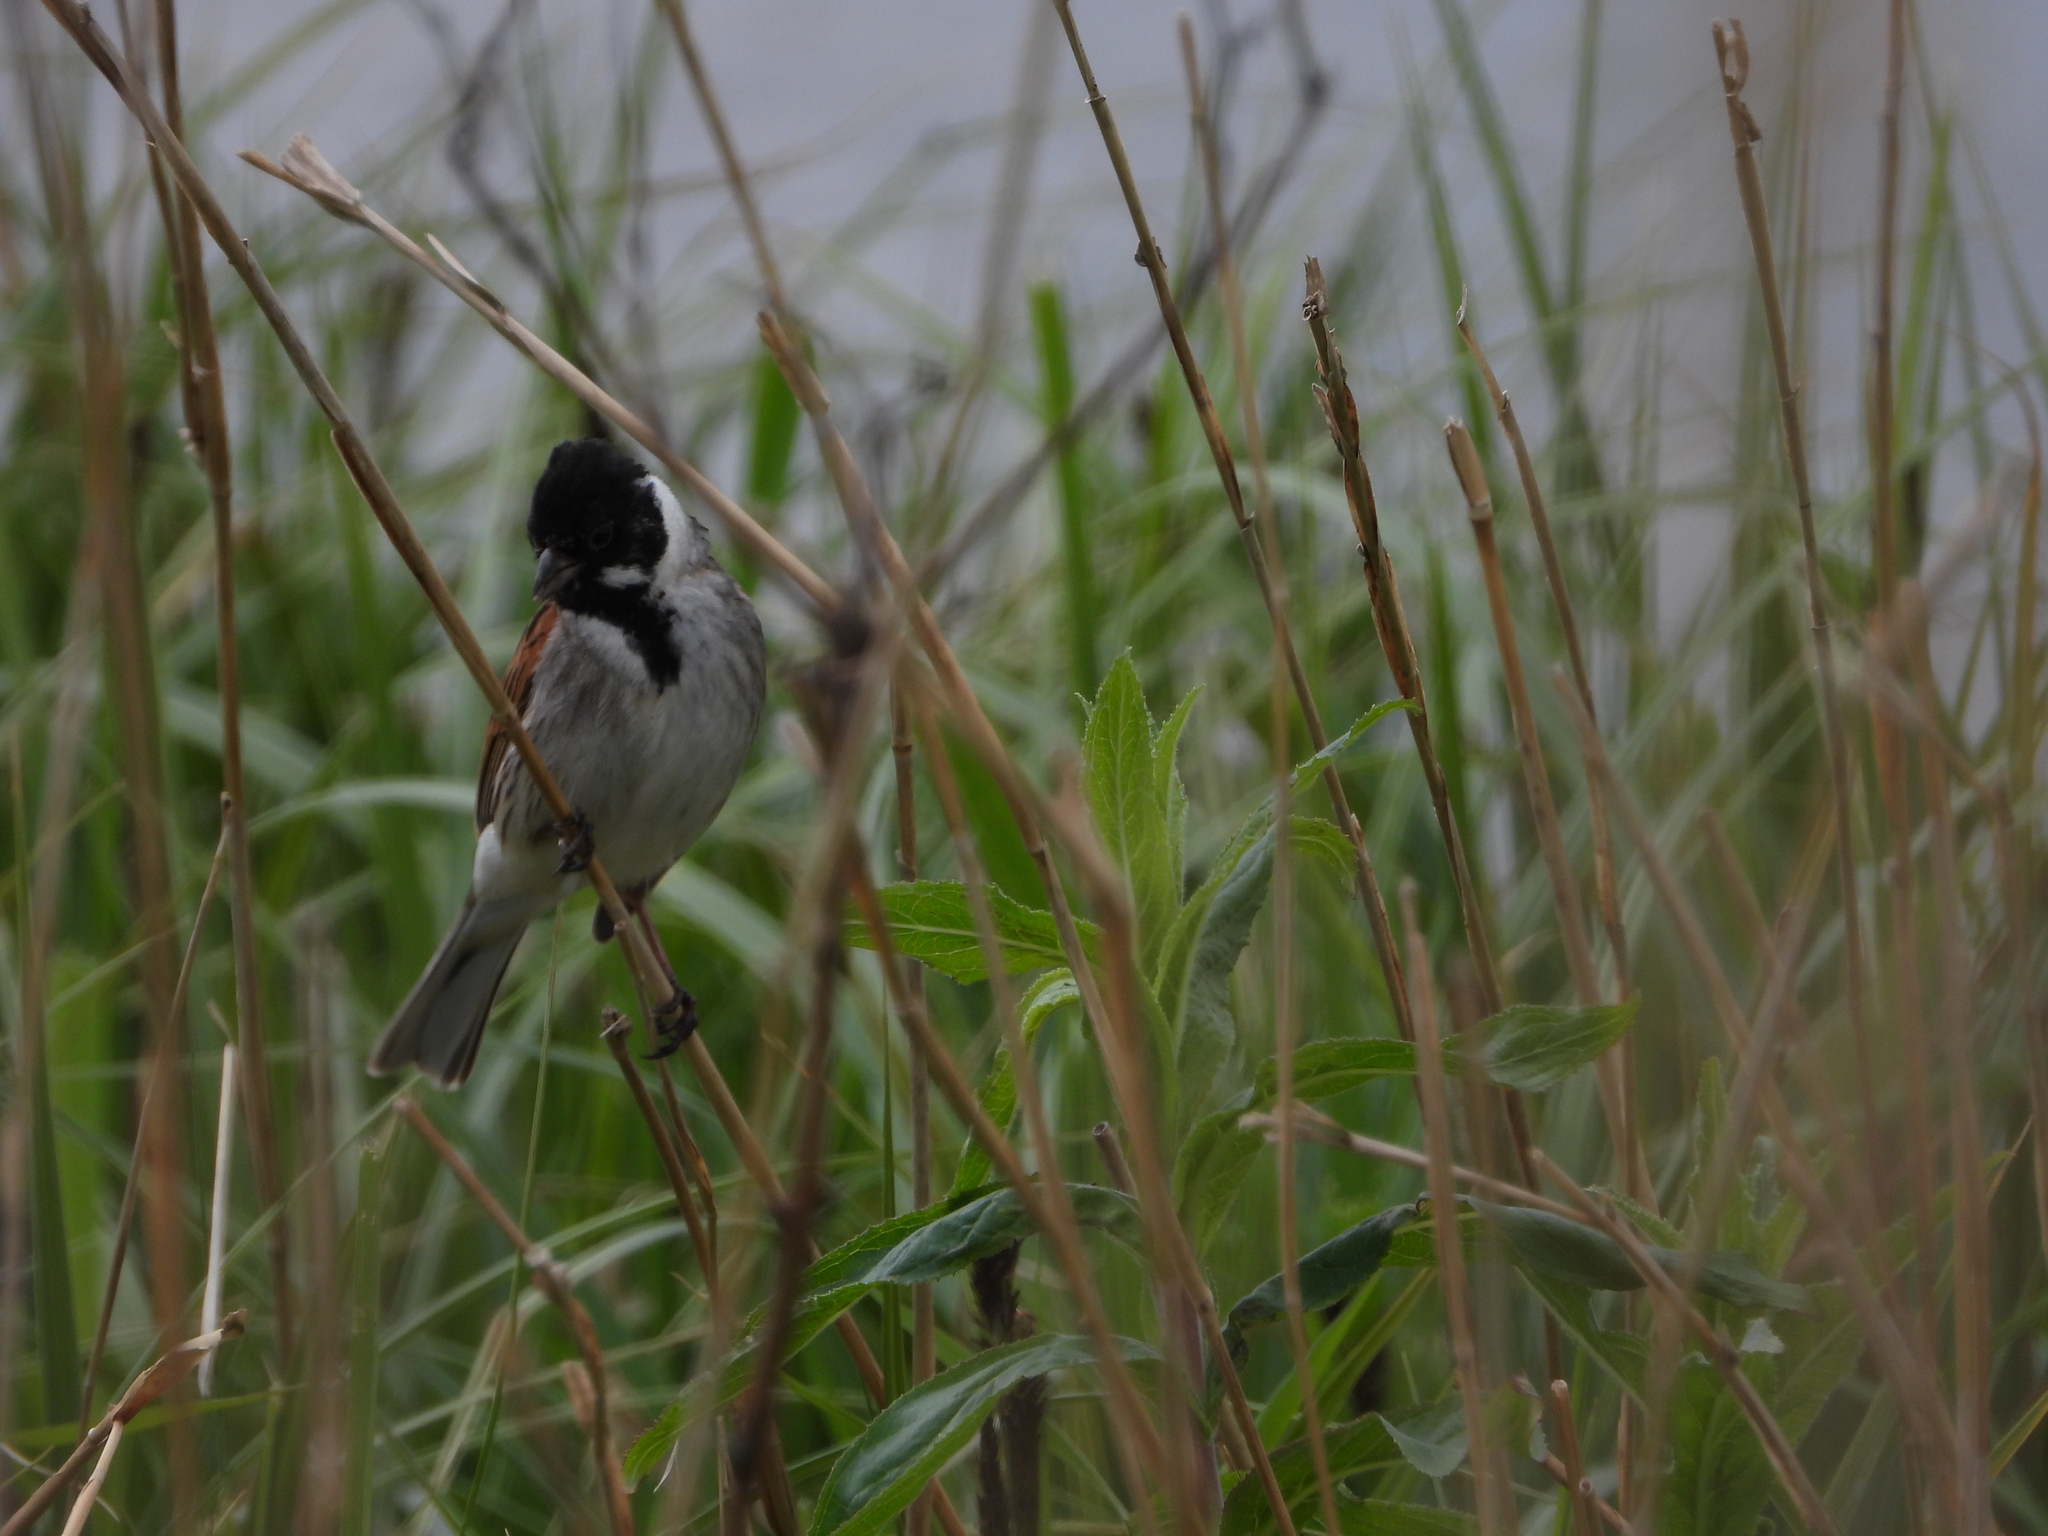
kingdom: Animalia
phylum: Chordata
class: Aves
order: Passeriformes
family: Emberizidae
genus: Emberiza
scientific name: Emberiza schoeniclus
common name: Reed bunting
